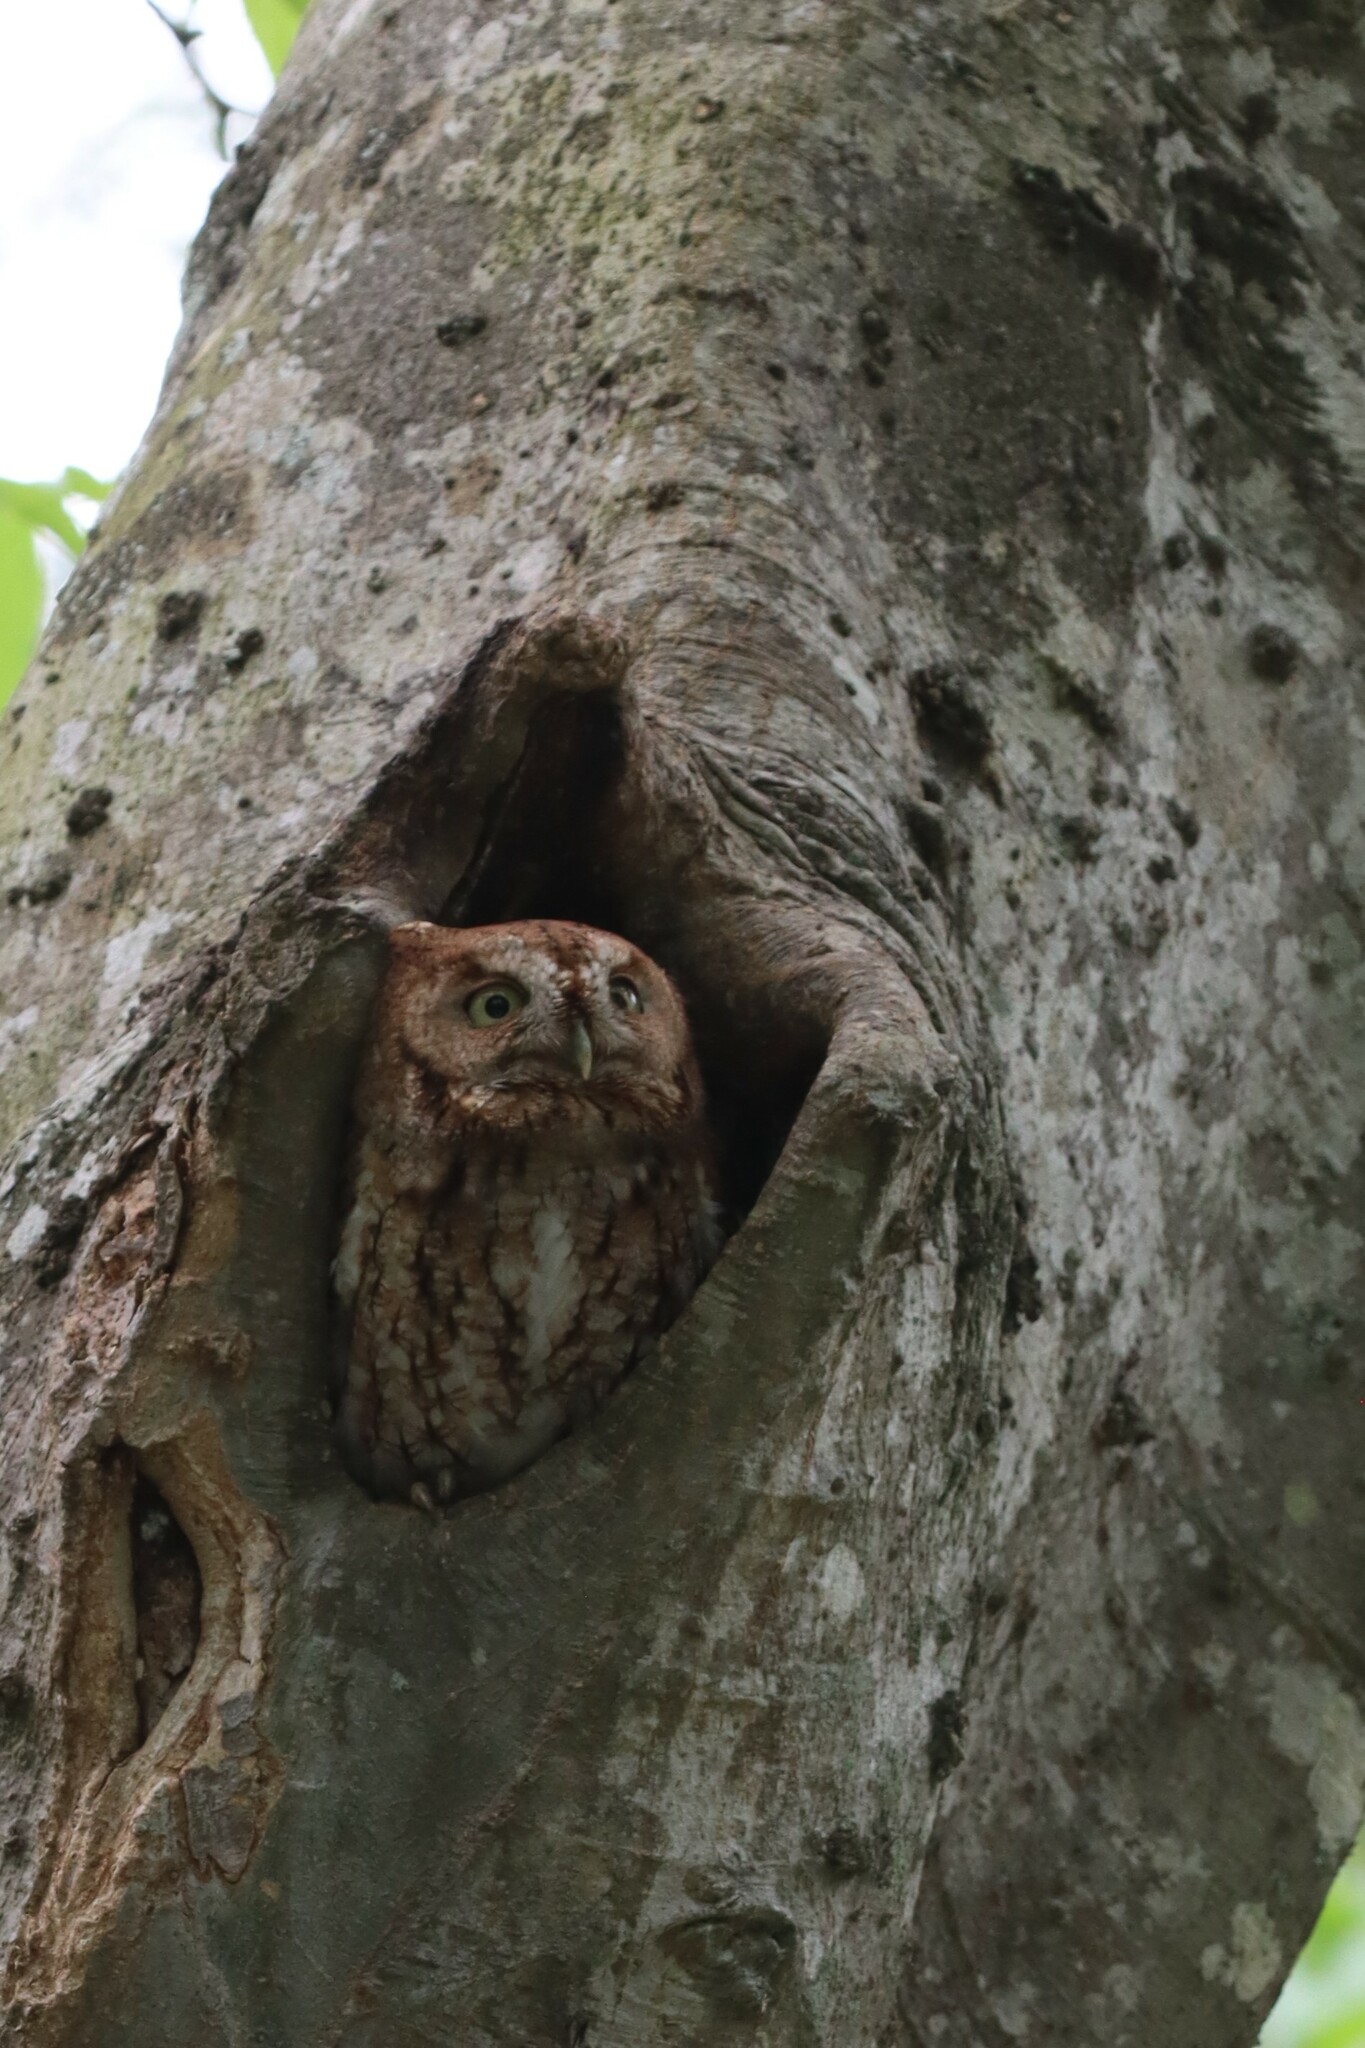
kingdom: Animalia
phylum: Chordata
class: Aves
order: Strigiformes
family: Strigidae
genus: Megascops
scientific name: Megascops asio
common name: Eastern screech-owl
